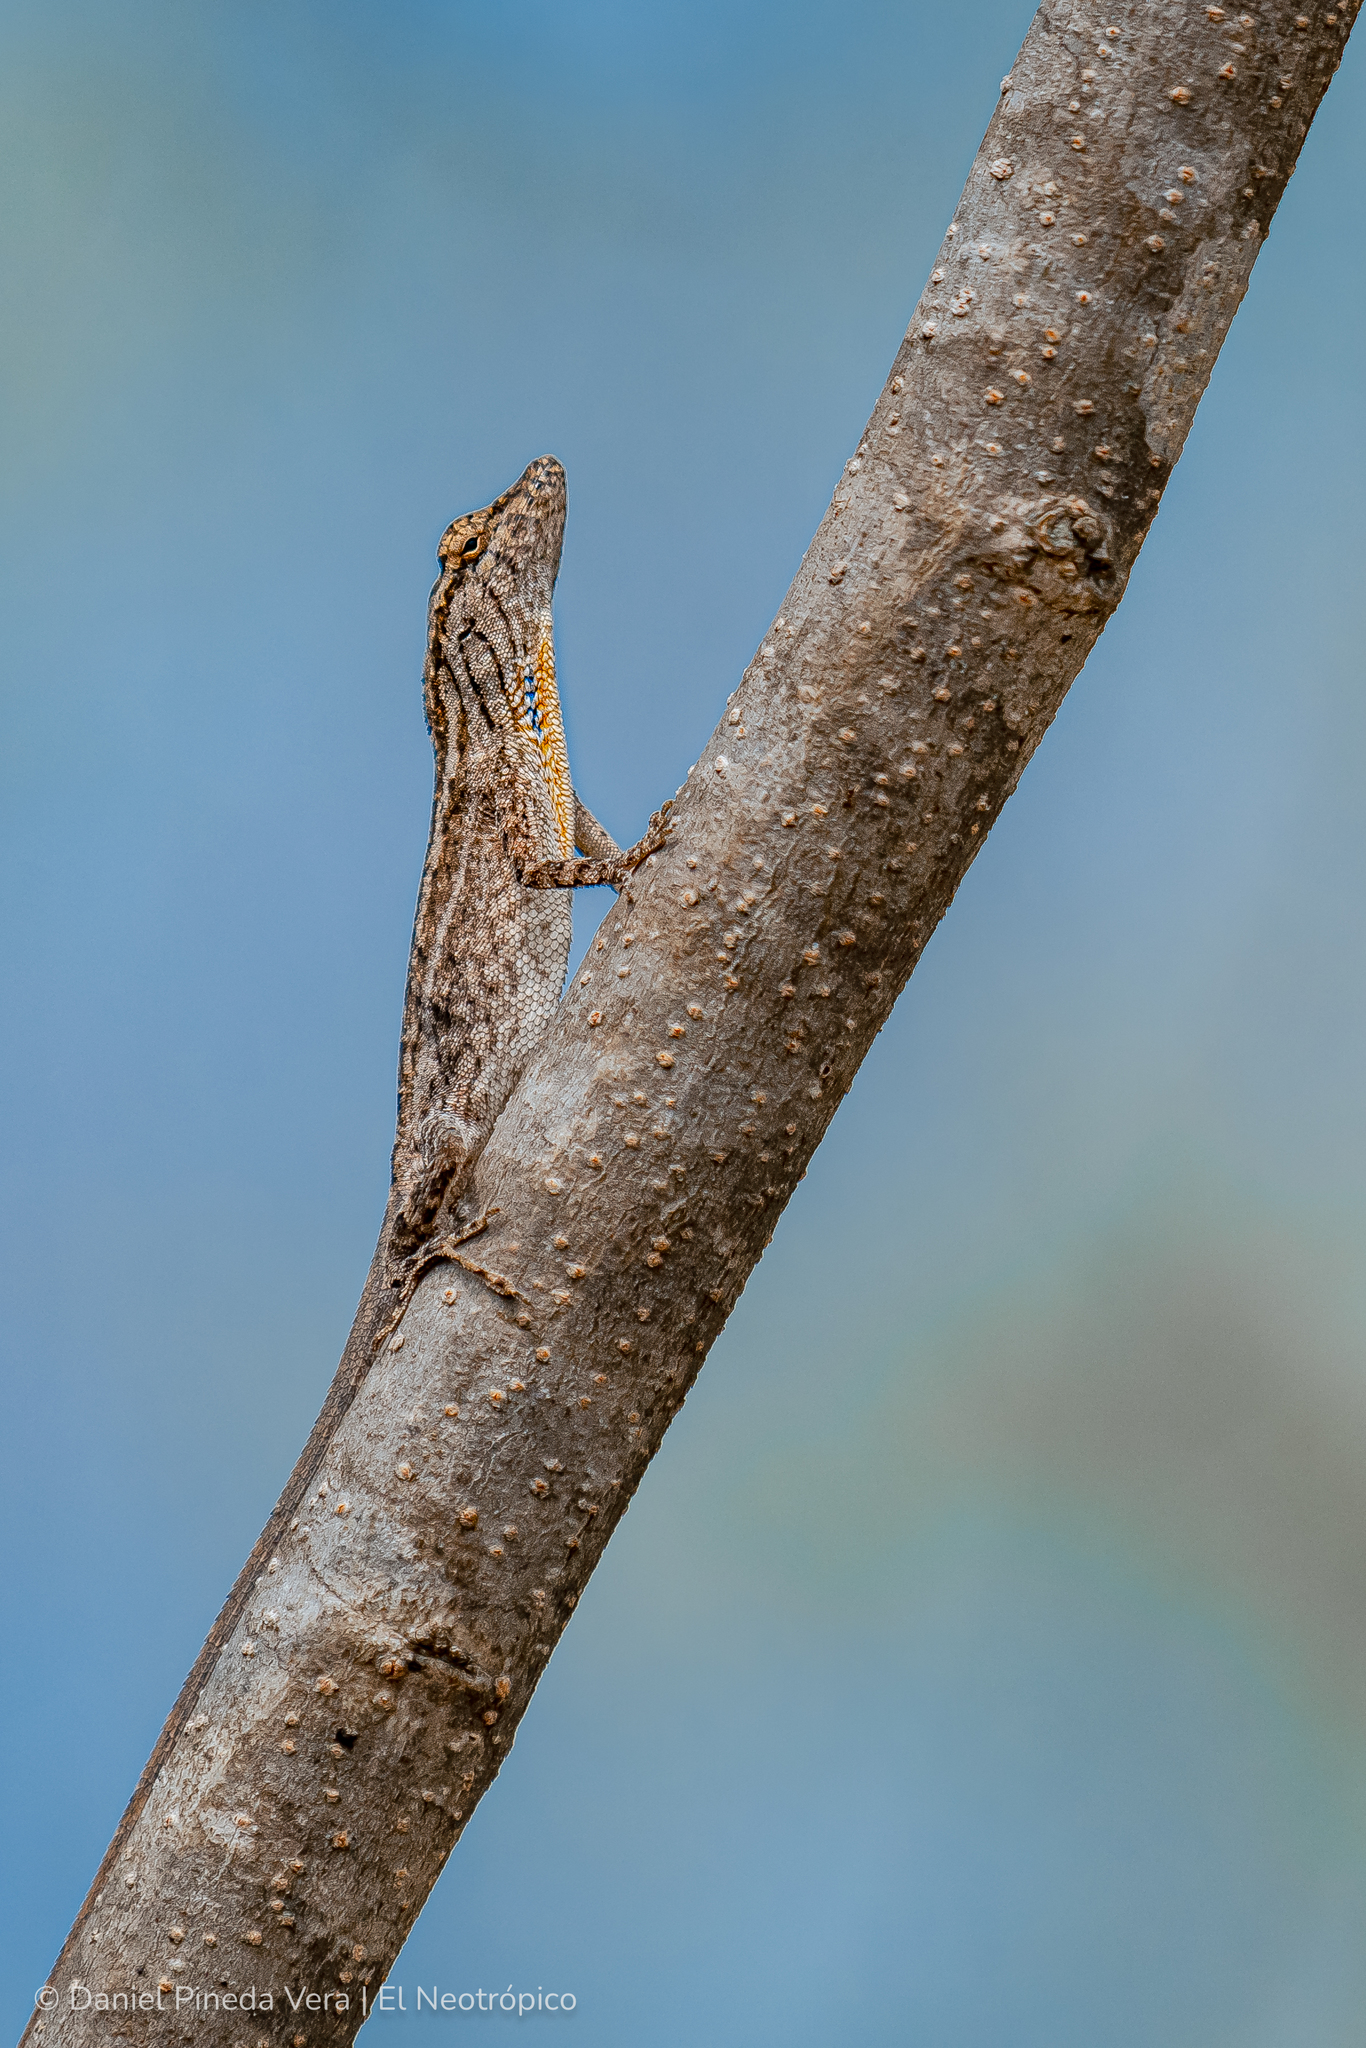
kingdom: Animalia
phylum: Chordata
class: Squamata
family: Dactyloidae
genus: Anolis
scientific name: Anolis unilobatus
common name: Blue-spotted fan anole
